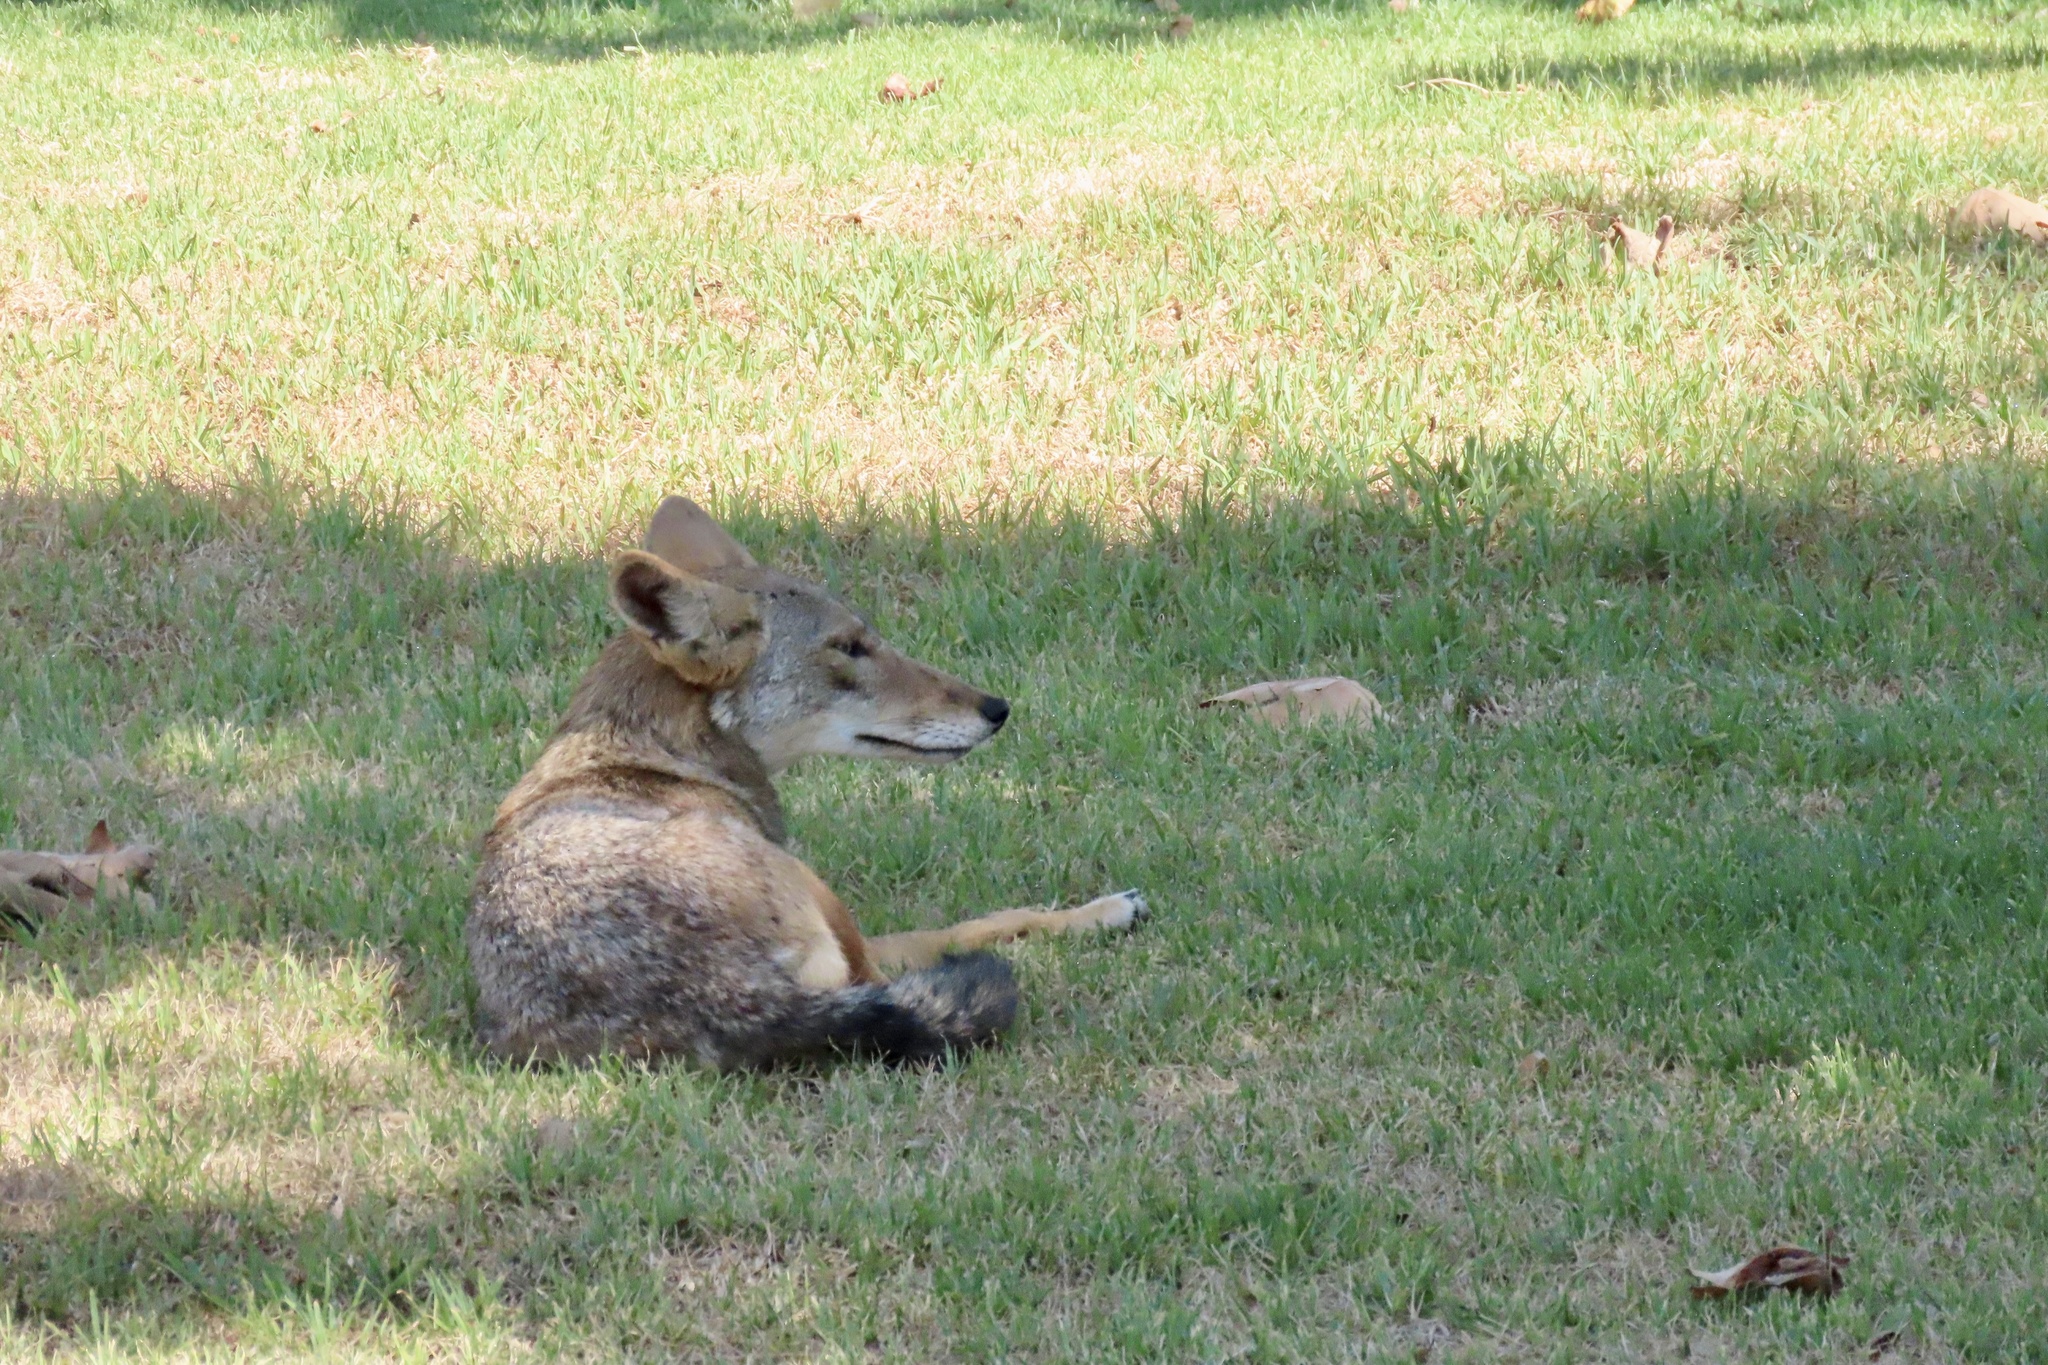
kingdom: Animalia
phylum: Chordata
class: Mammalia
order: Carnivora
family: Canidae
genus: Canis
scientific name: Canis latrans
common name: Coyote
